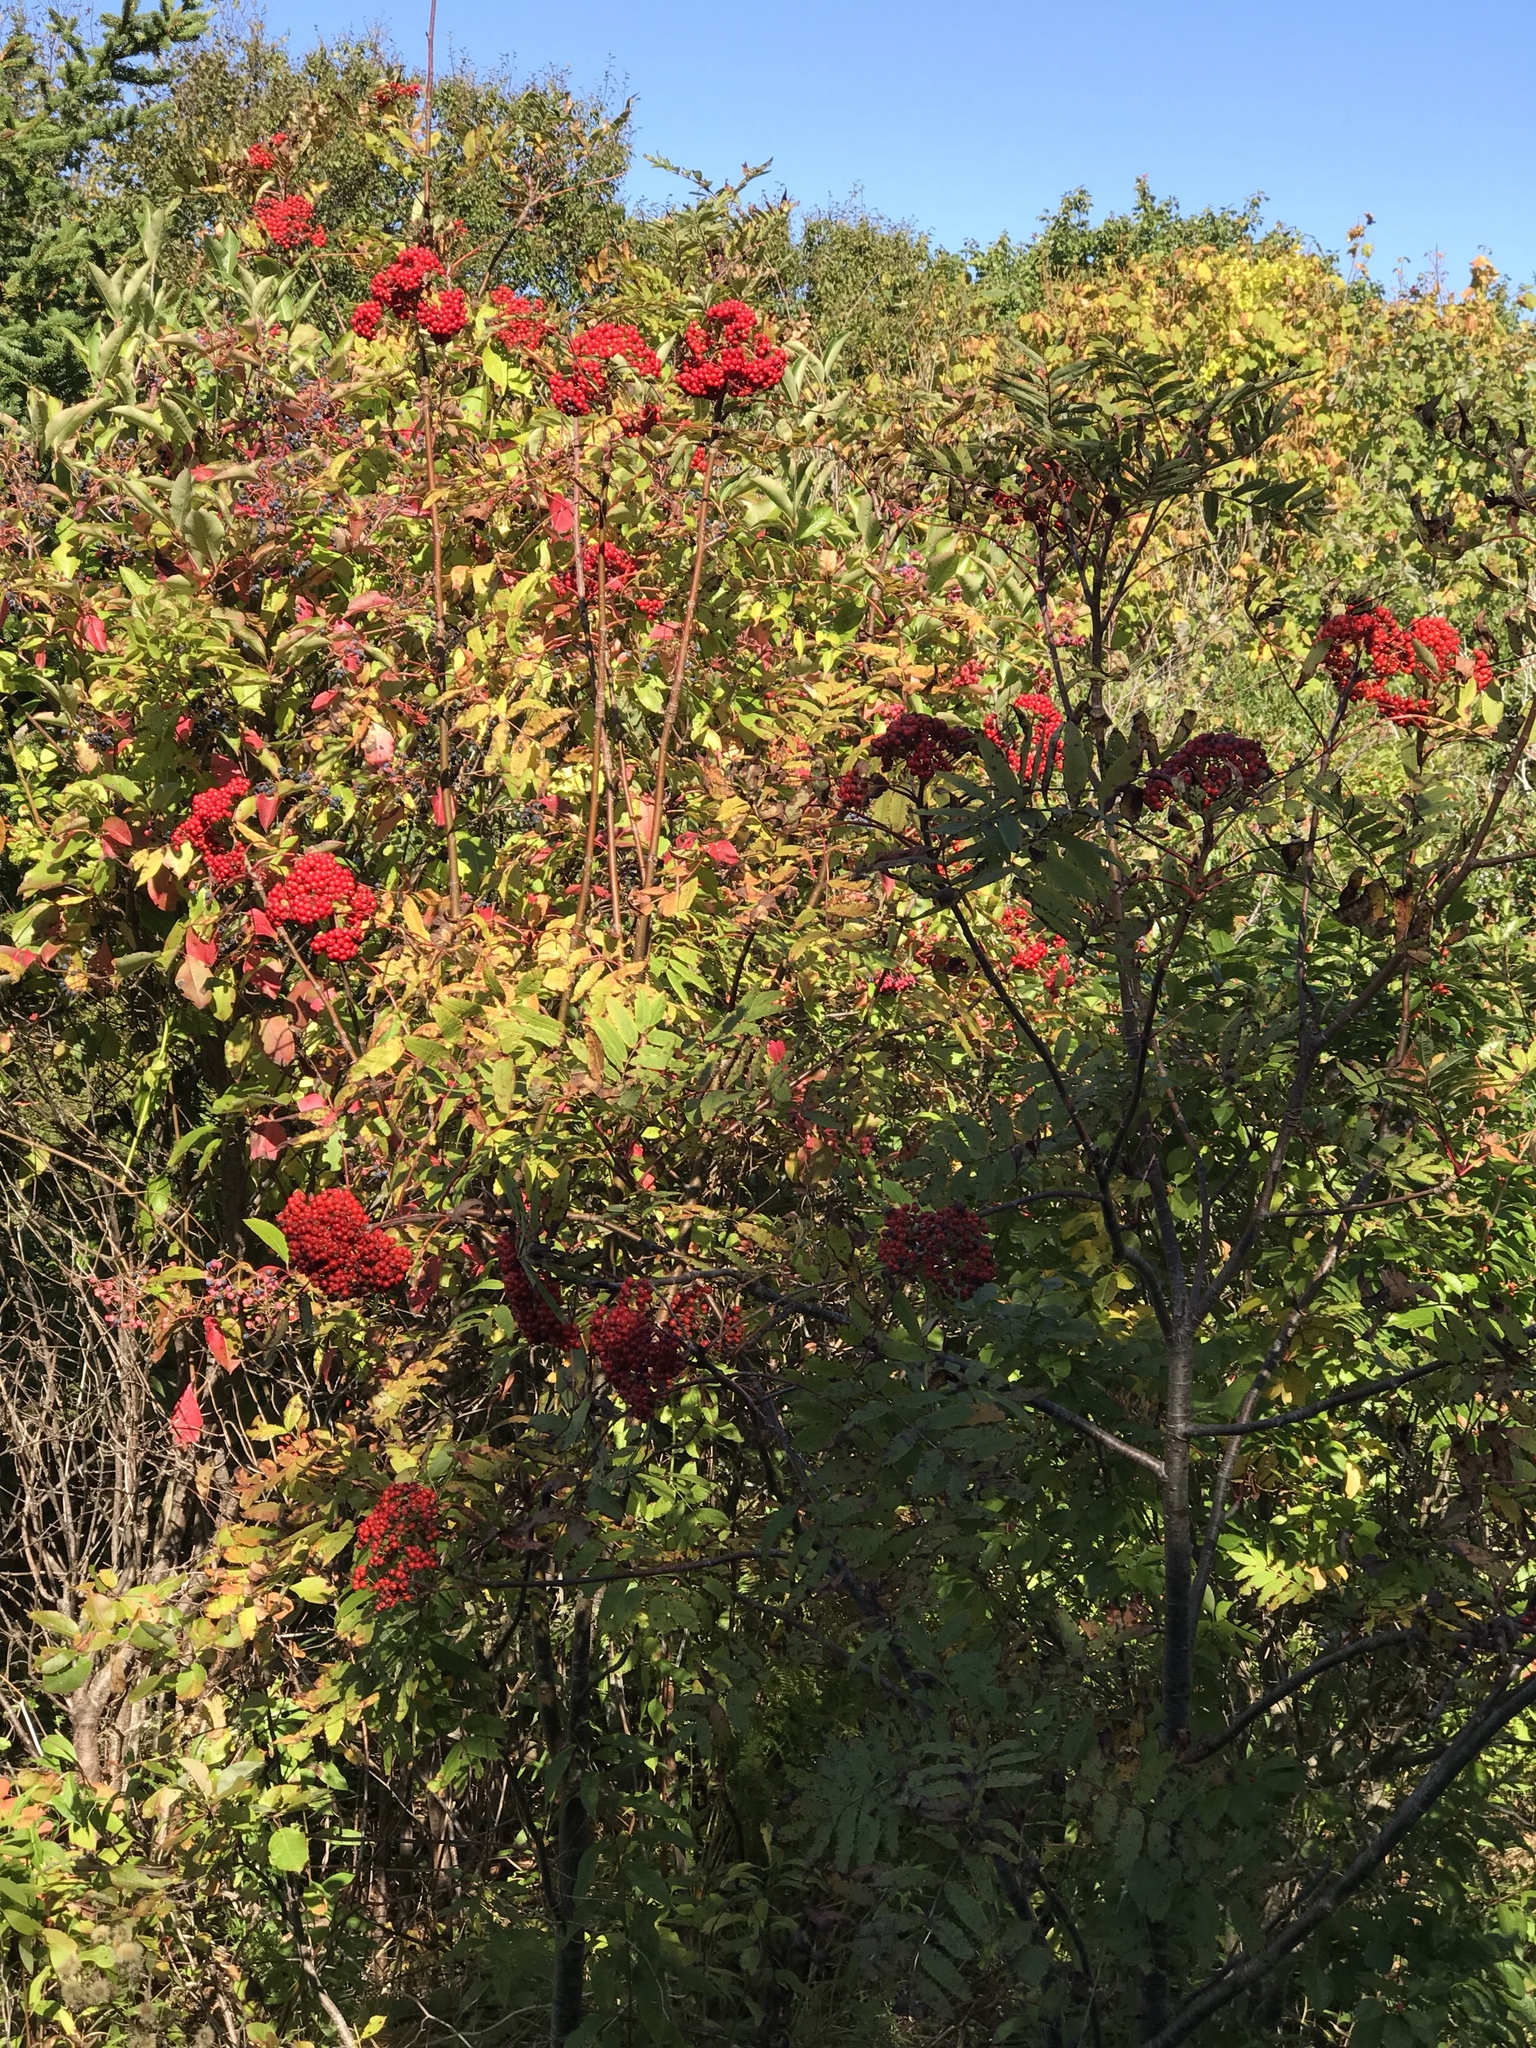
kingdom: Plantae
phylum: Tracheophyta
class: Magnoliopsida
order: Rosales
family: Rosaceae
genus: Sorbus
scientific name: Sorbus americana
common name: American mountain-ash
